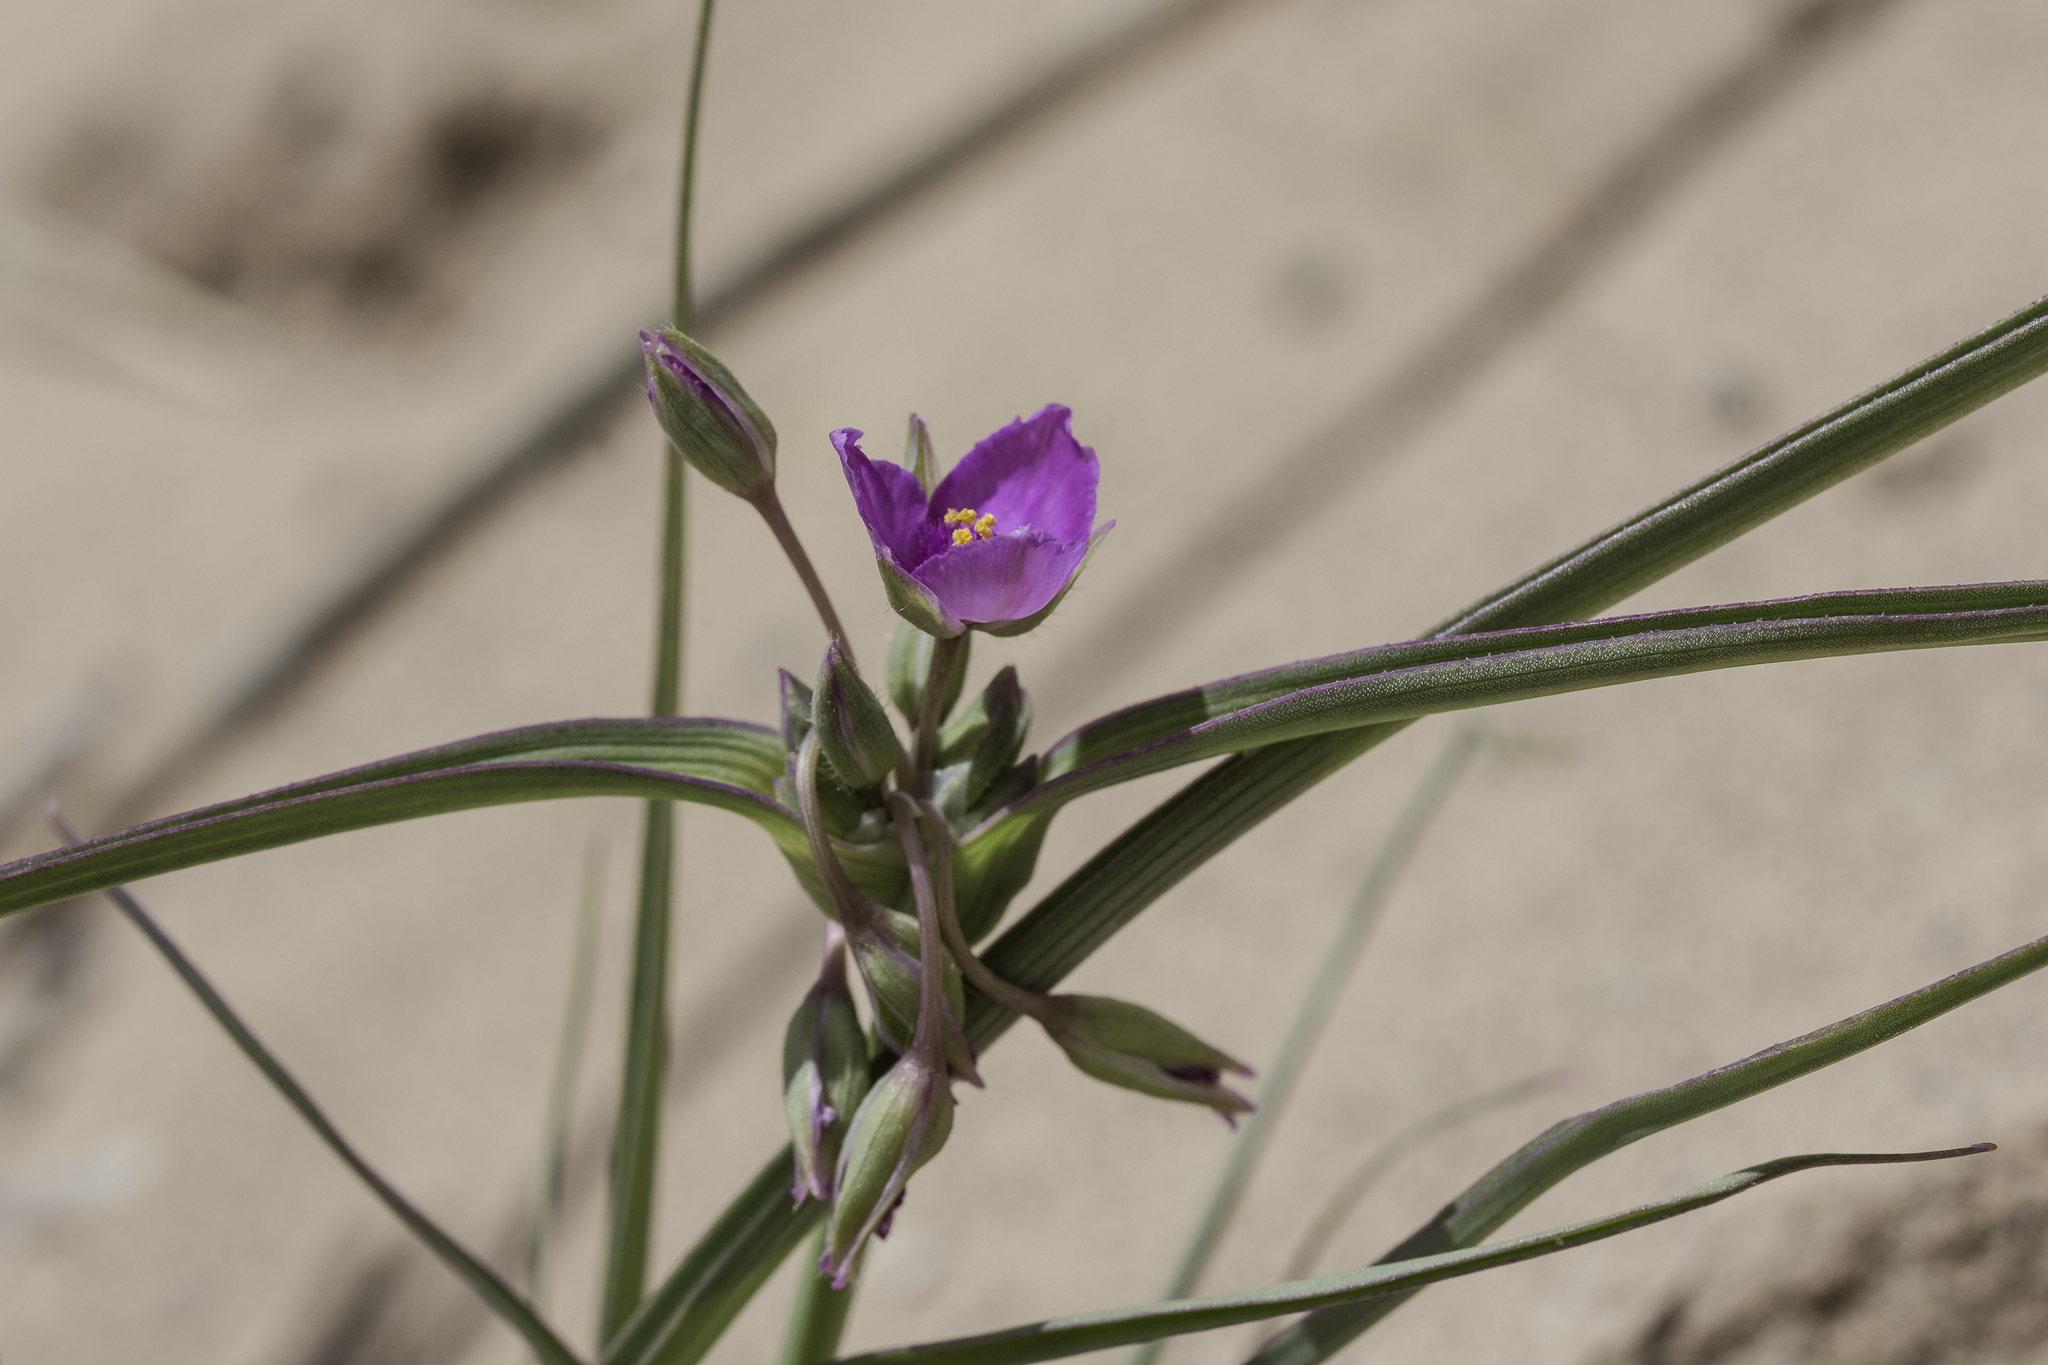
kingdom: Plantae
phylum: Tracheophyta
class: Liliopsida
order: Commelinales
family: Commelinaceae
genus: Tradescantia
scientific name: Tradescantia occidentalis
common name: Prairie spiderwort
